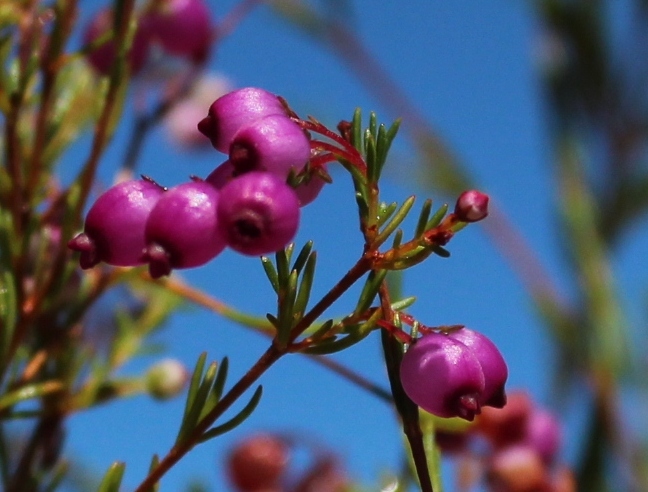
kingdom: Plantae
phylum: Tracheophyta
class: Magnoliopsida
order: Ericales
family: Ericaceae
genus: Erica
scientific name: Erica multumbellifera
